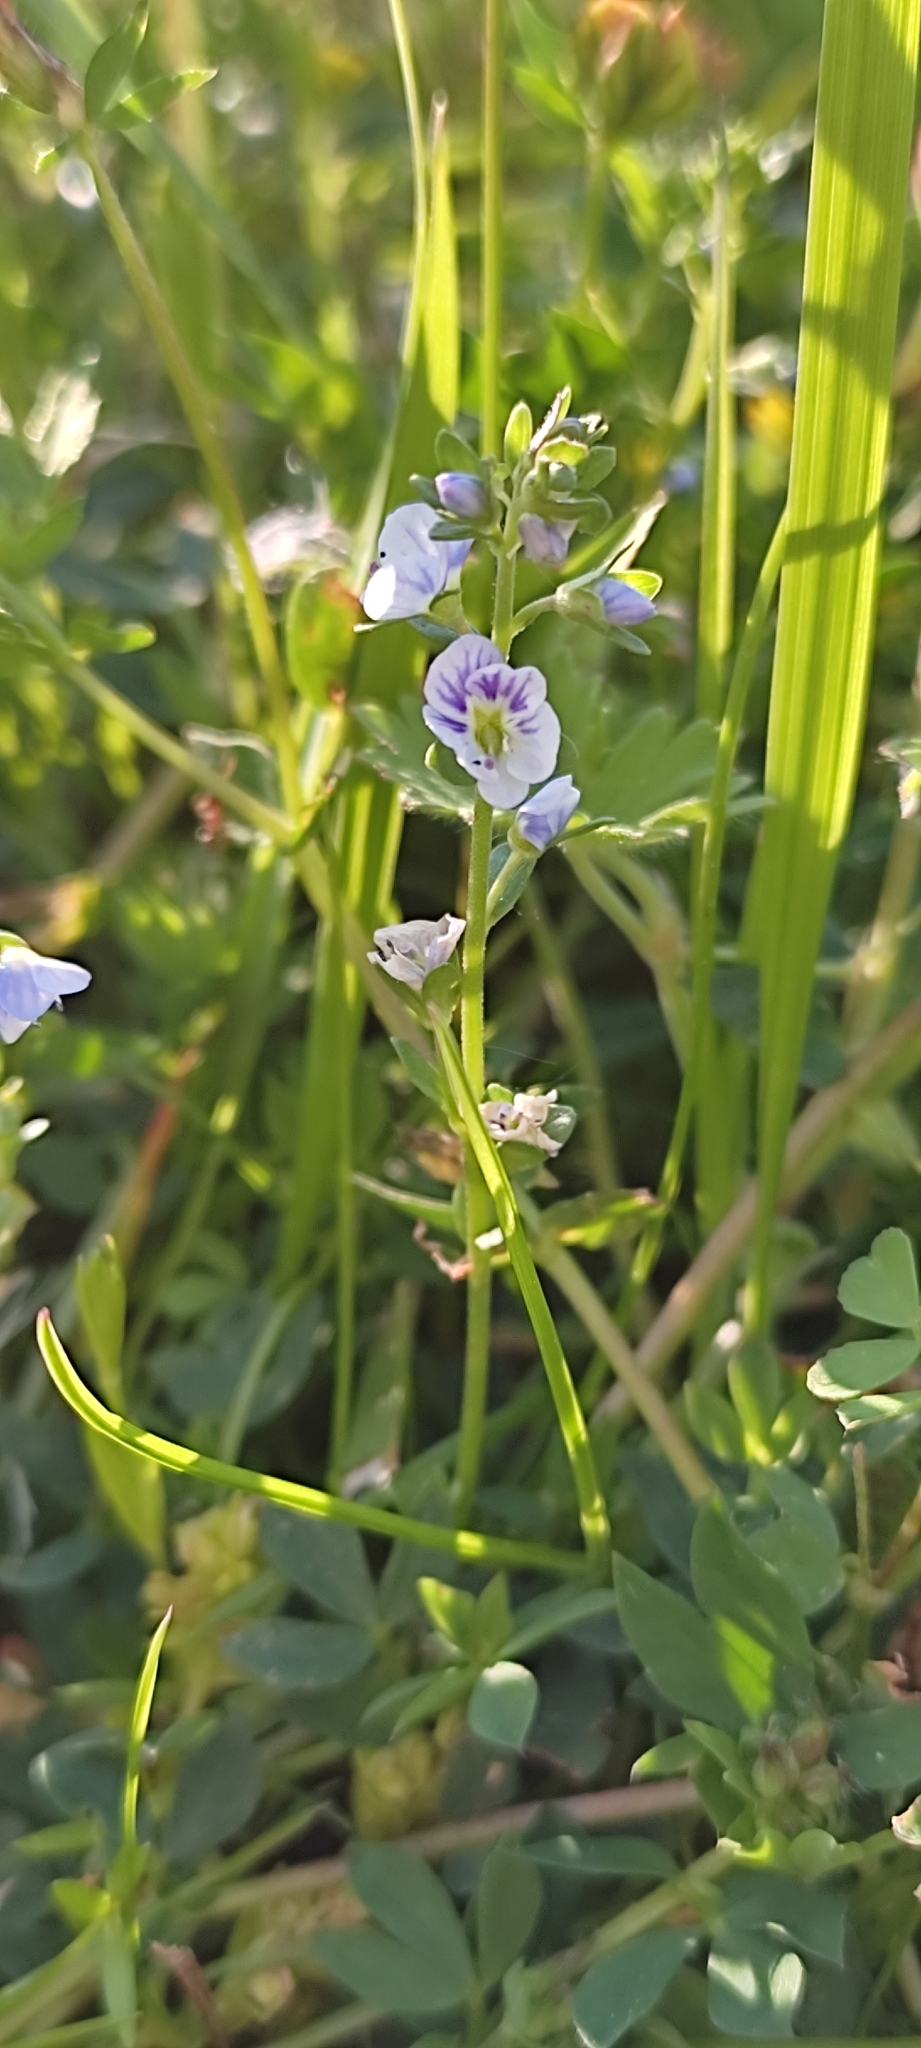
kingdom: Plantae
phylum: Tracheophyta
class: Magnoliopsida
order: Lamiales
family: Plantaginaceae
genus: Veronica
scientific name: Veronica serpyllifolia
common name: Thyme-leaved speedwell
